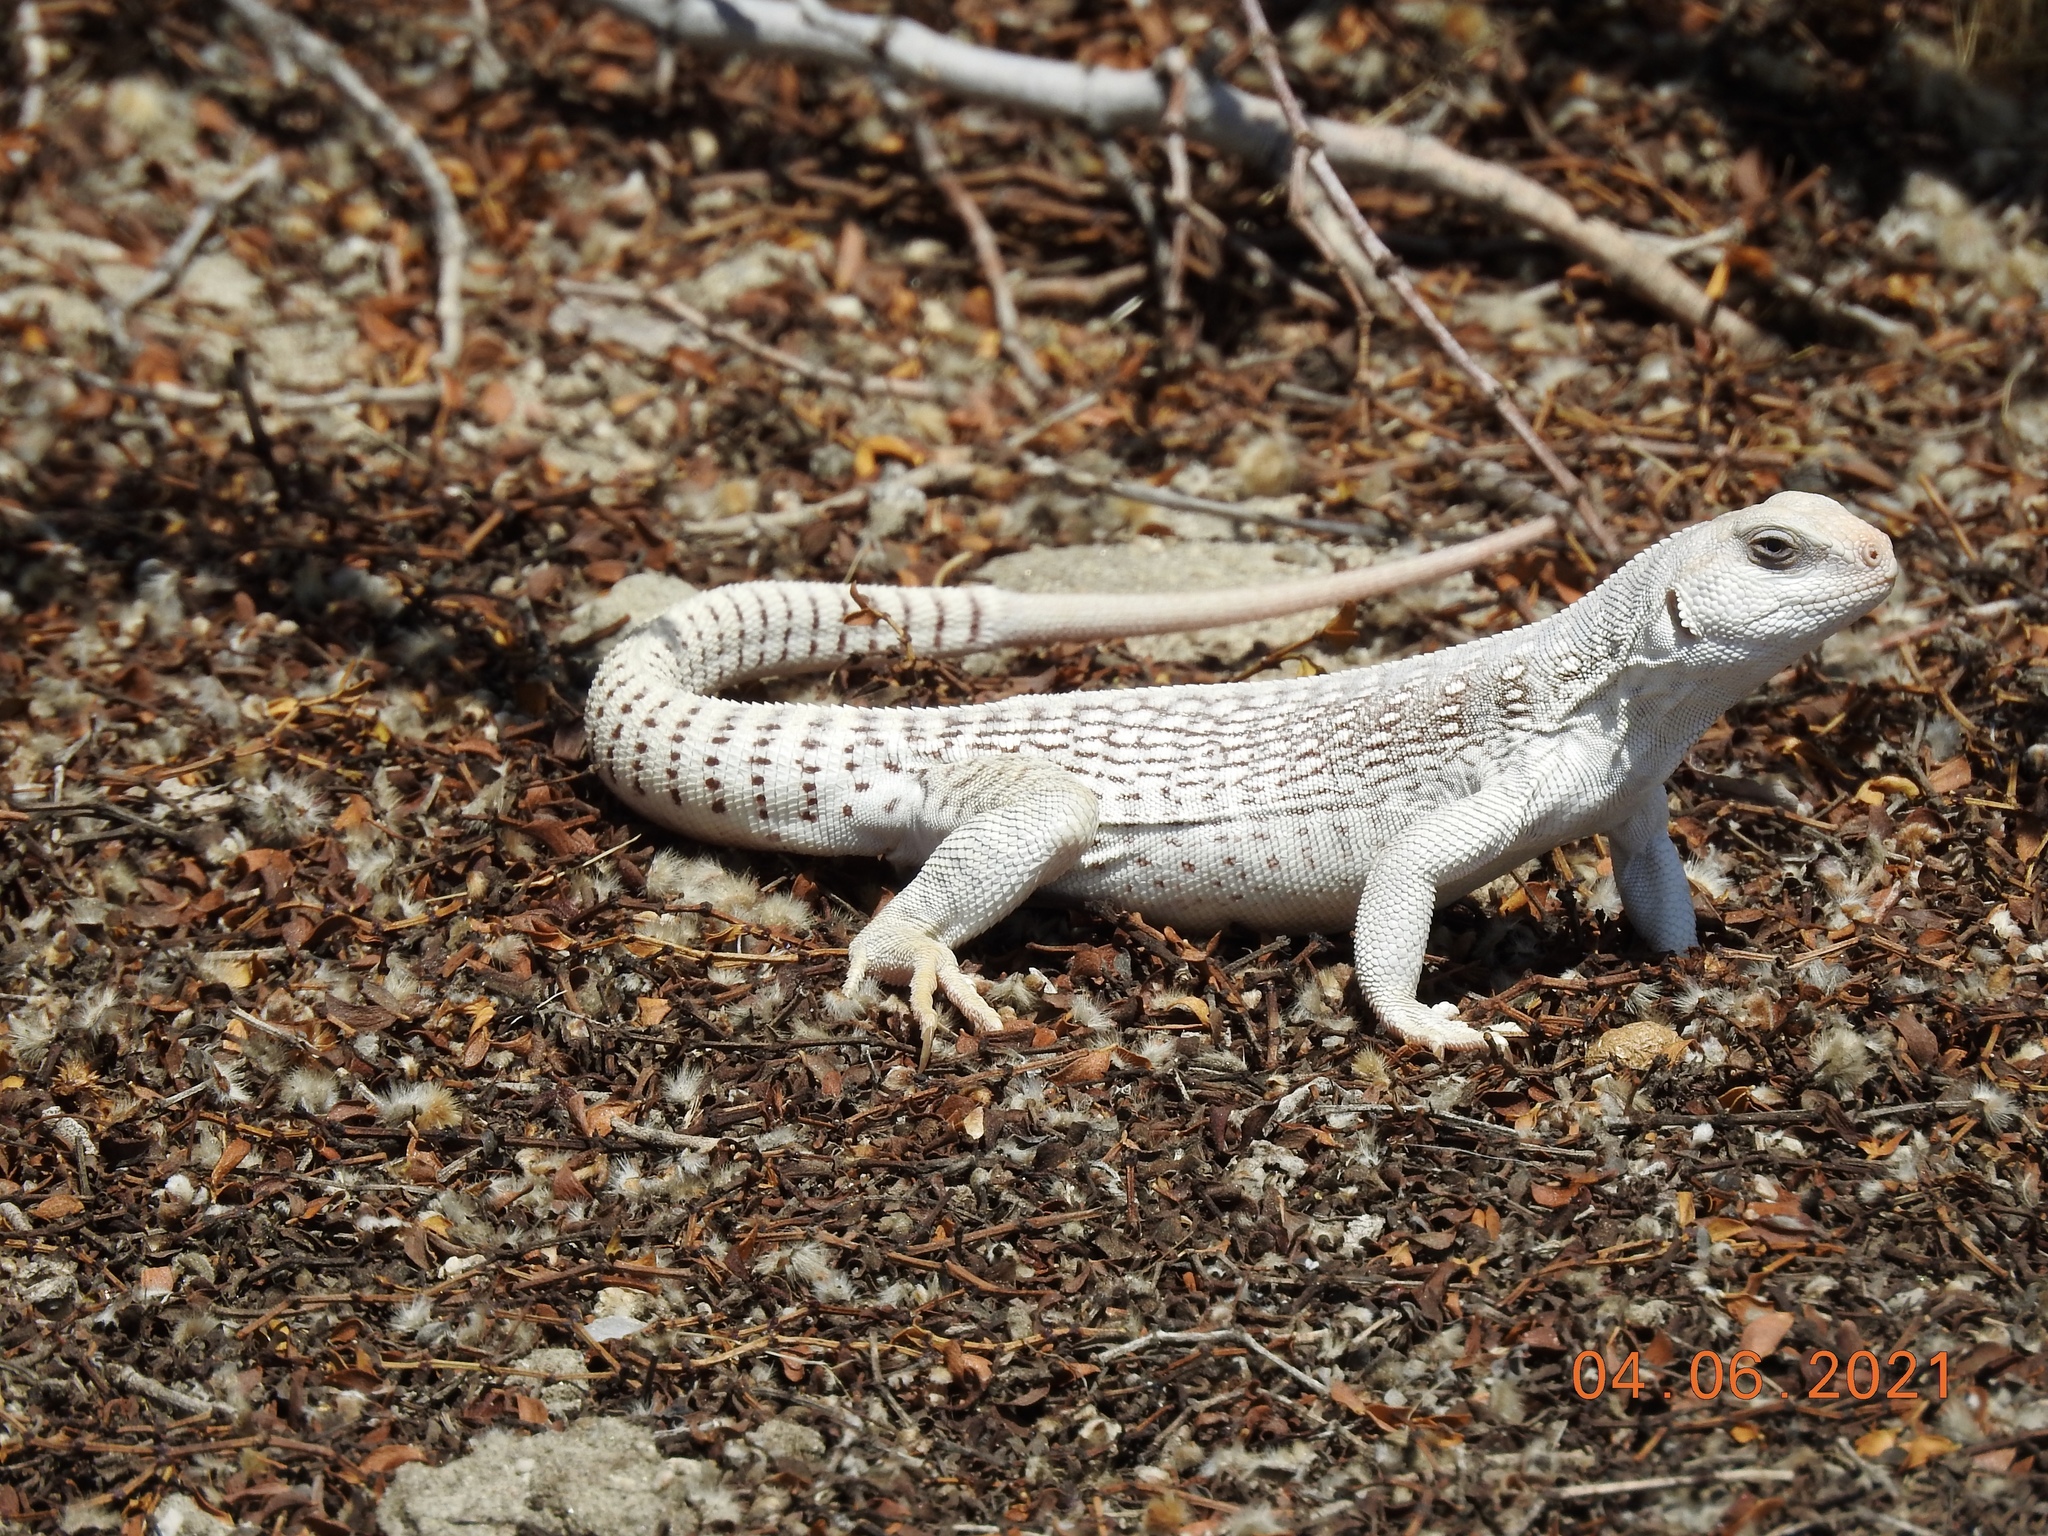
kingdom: Animalia
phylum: Chordata
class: Squamata
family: Iguanidae
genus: Dipsosaurus
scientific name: Dipsosaurus dorsalis
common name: Desert iguana
